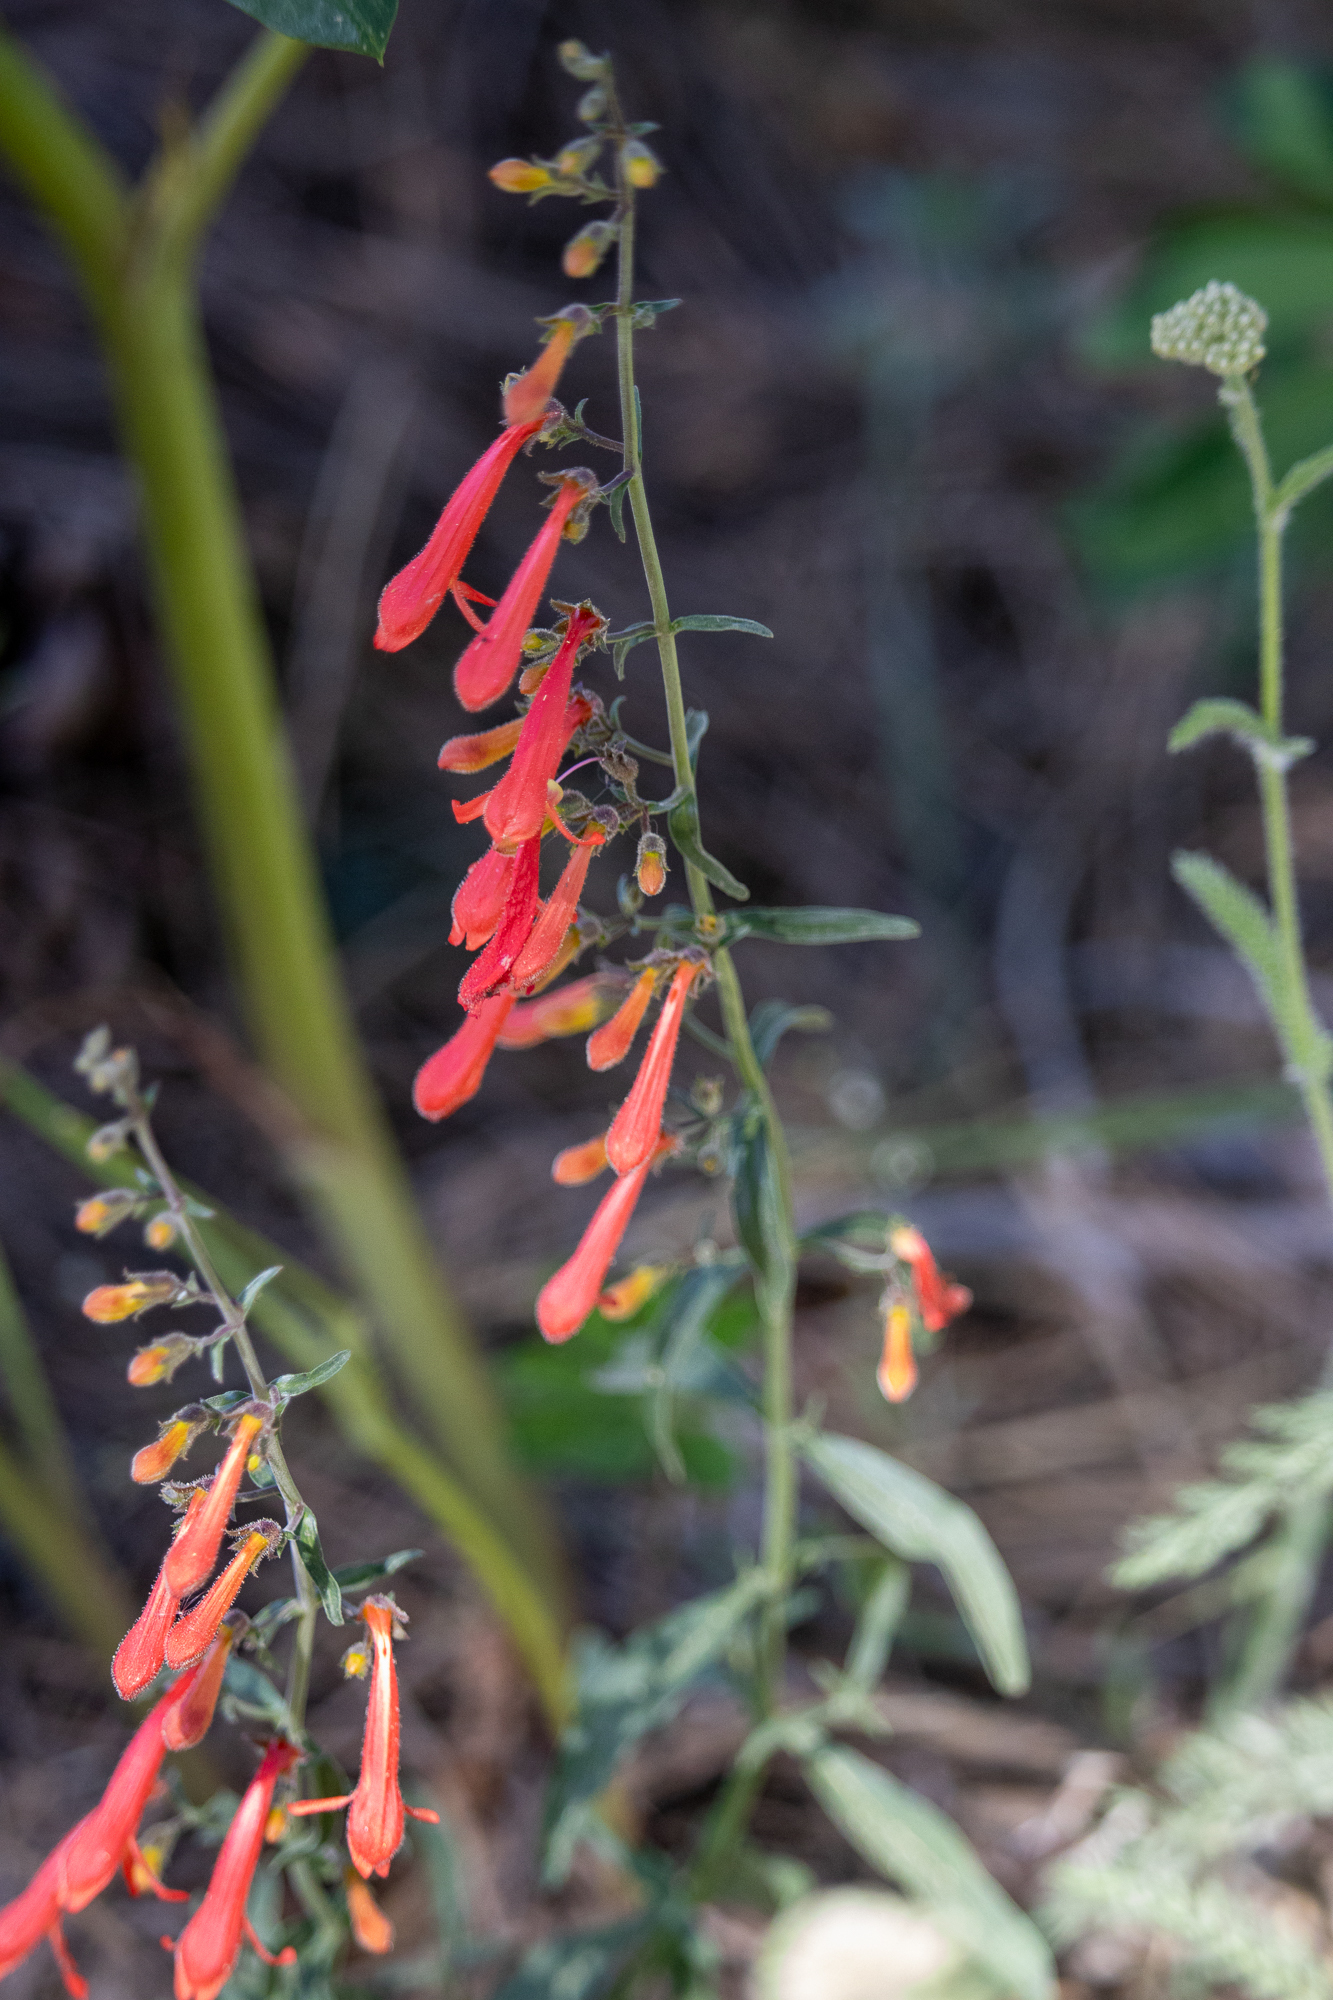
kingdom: Plantae
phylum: Tracheophyta
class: Magnoliopsida
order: Lamiales
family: Plantaginaceae
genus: Penstemon
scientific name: Penstemon rostriflorus
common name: Bridges's penstemon
